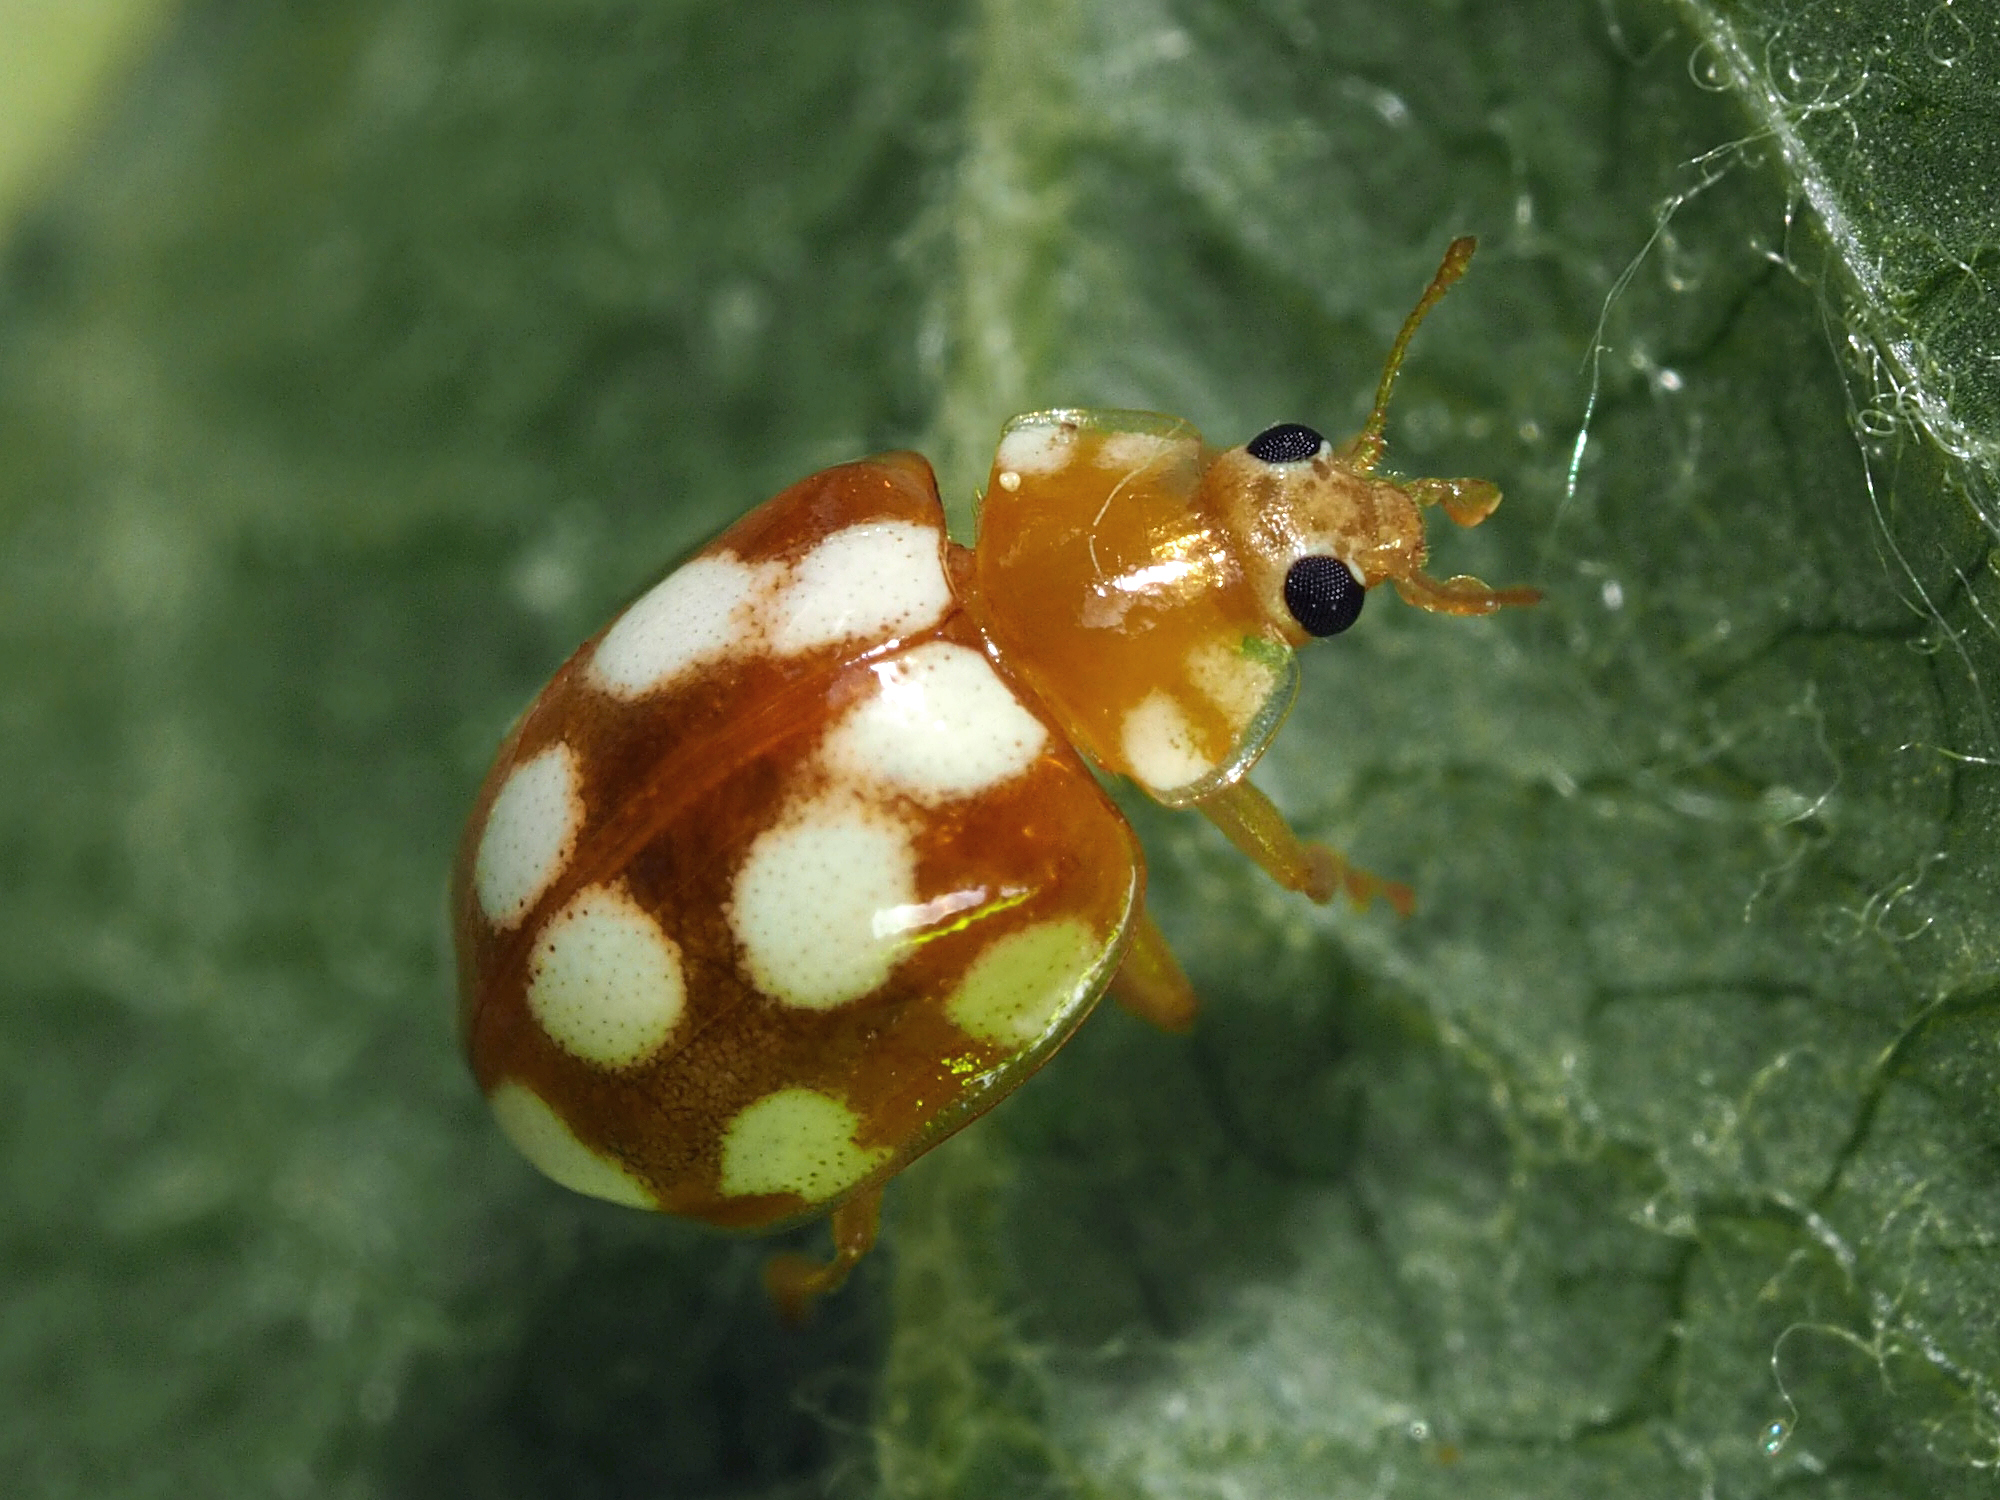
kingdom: Animalia
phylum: Arthropoda
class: Insecta
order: Coleoptera
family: Coccinellidae
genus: Vibidia
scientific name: Vibidia duodecimguttata
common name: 12-spot ladybird
